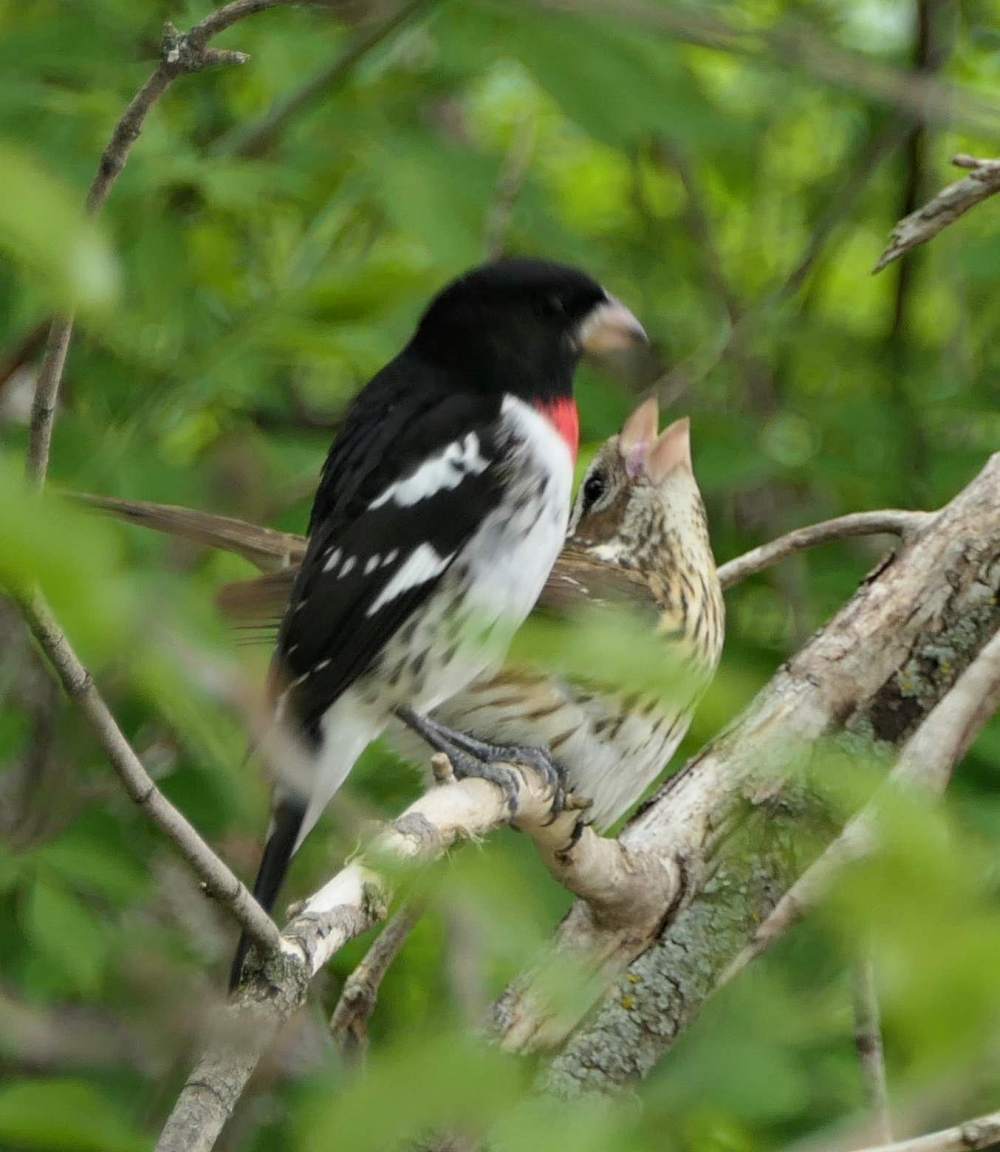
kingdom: Animalia
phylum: Chordata
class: Aves
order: Passeriformes
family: Cardinalidae
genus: Pheucticus
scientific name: Pheucticus ludovicianus
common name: Rose-breasted grosbeak
